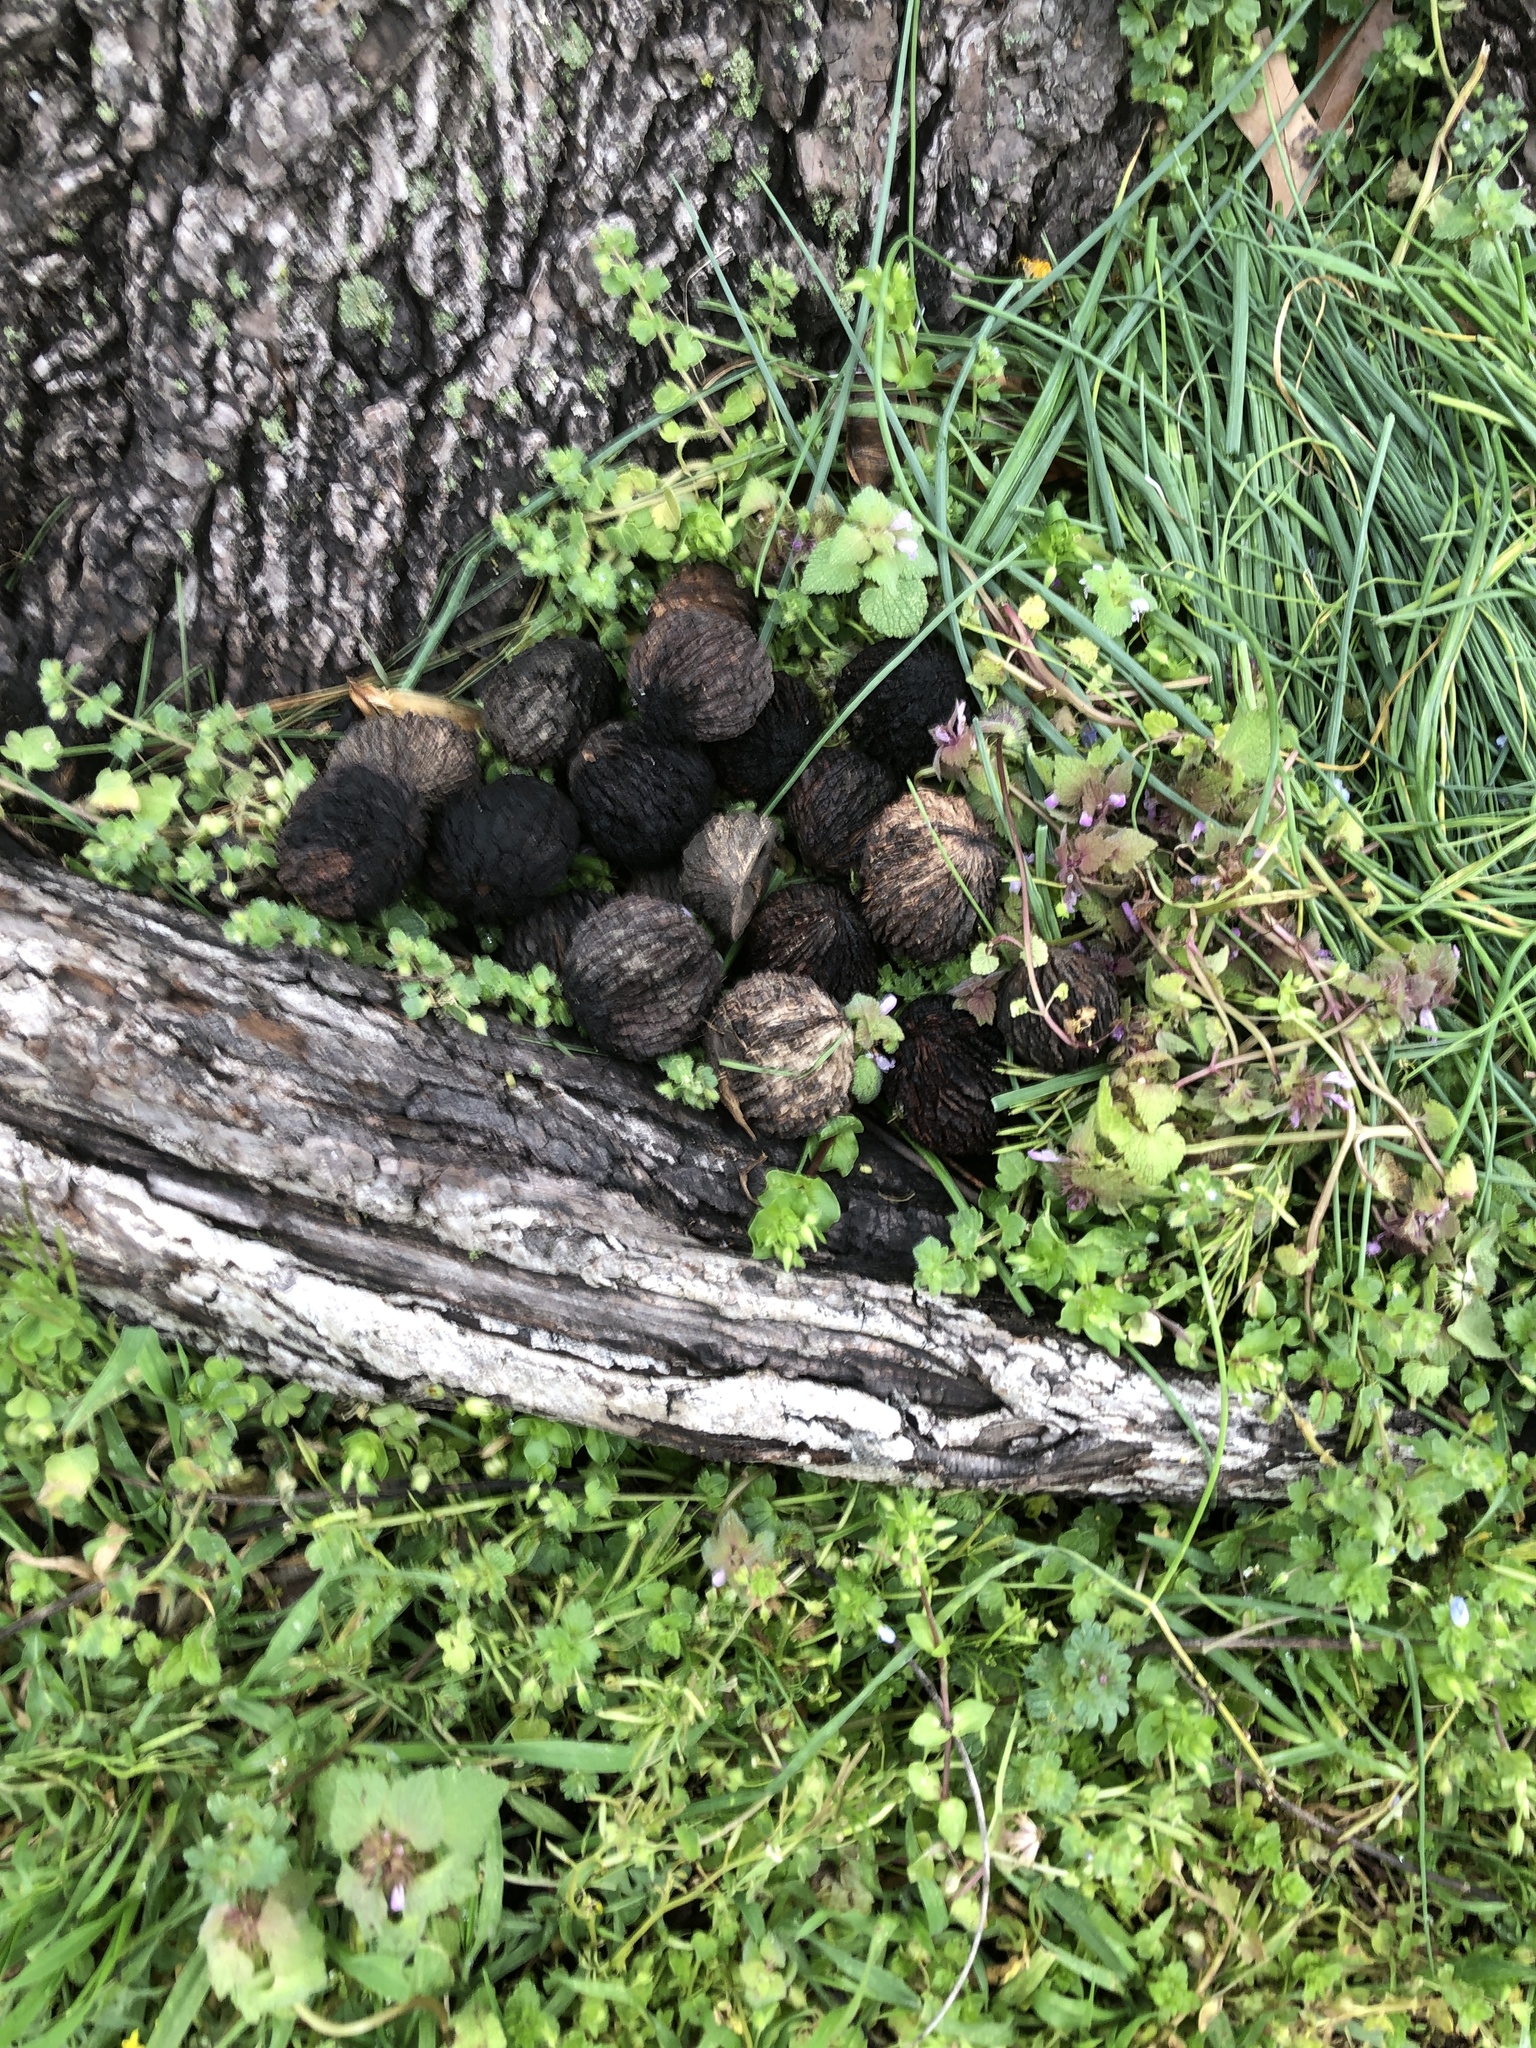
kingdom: Plantae
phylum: Tracheophyta
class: Magnoliopsida
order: Fagales
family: Juglandaceae
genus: Juglans
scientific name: Juglans nigra
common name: Black walnut
